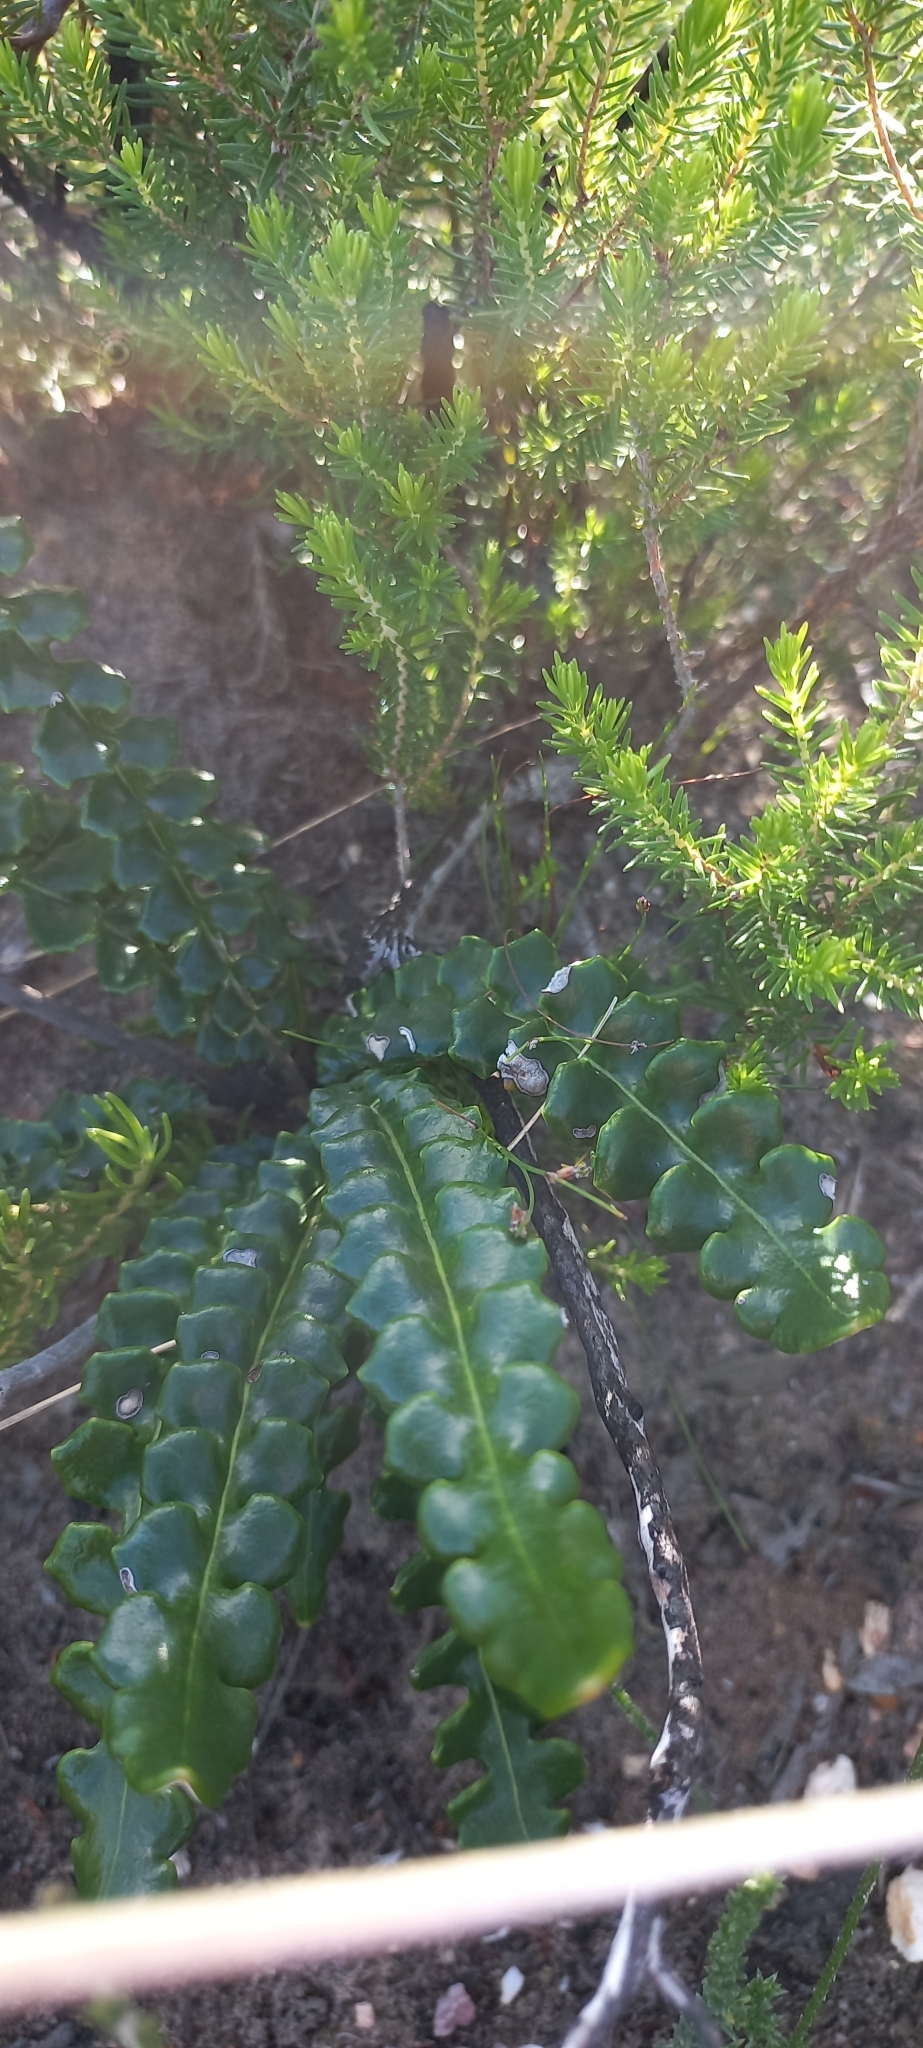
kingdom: Plantae
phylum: Tracheophyta
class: Magnoliopsida
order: Asterales
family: Asteraceae
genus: Gerbera
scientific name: Gerbera linnaei
